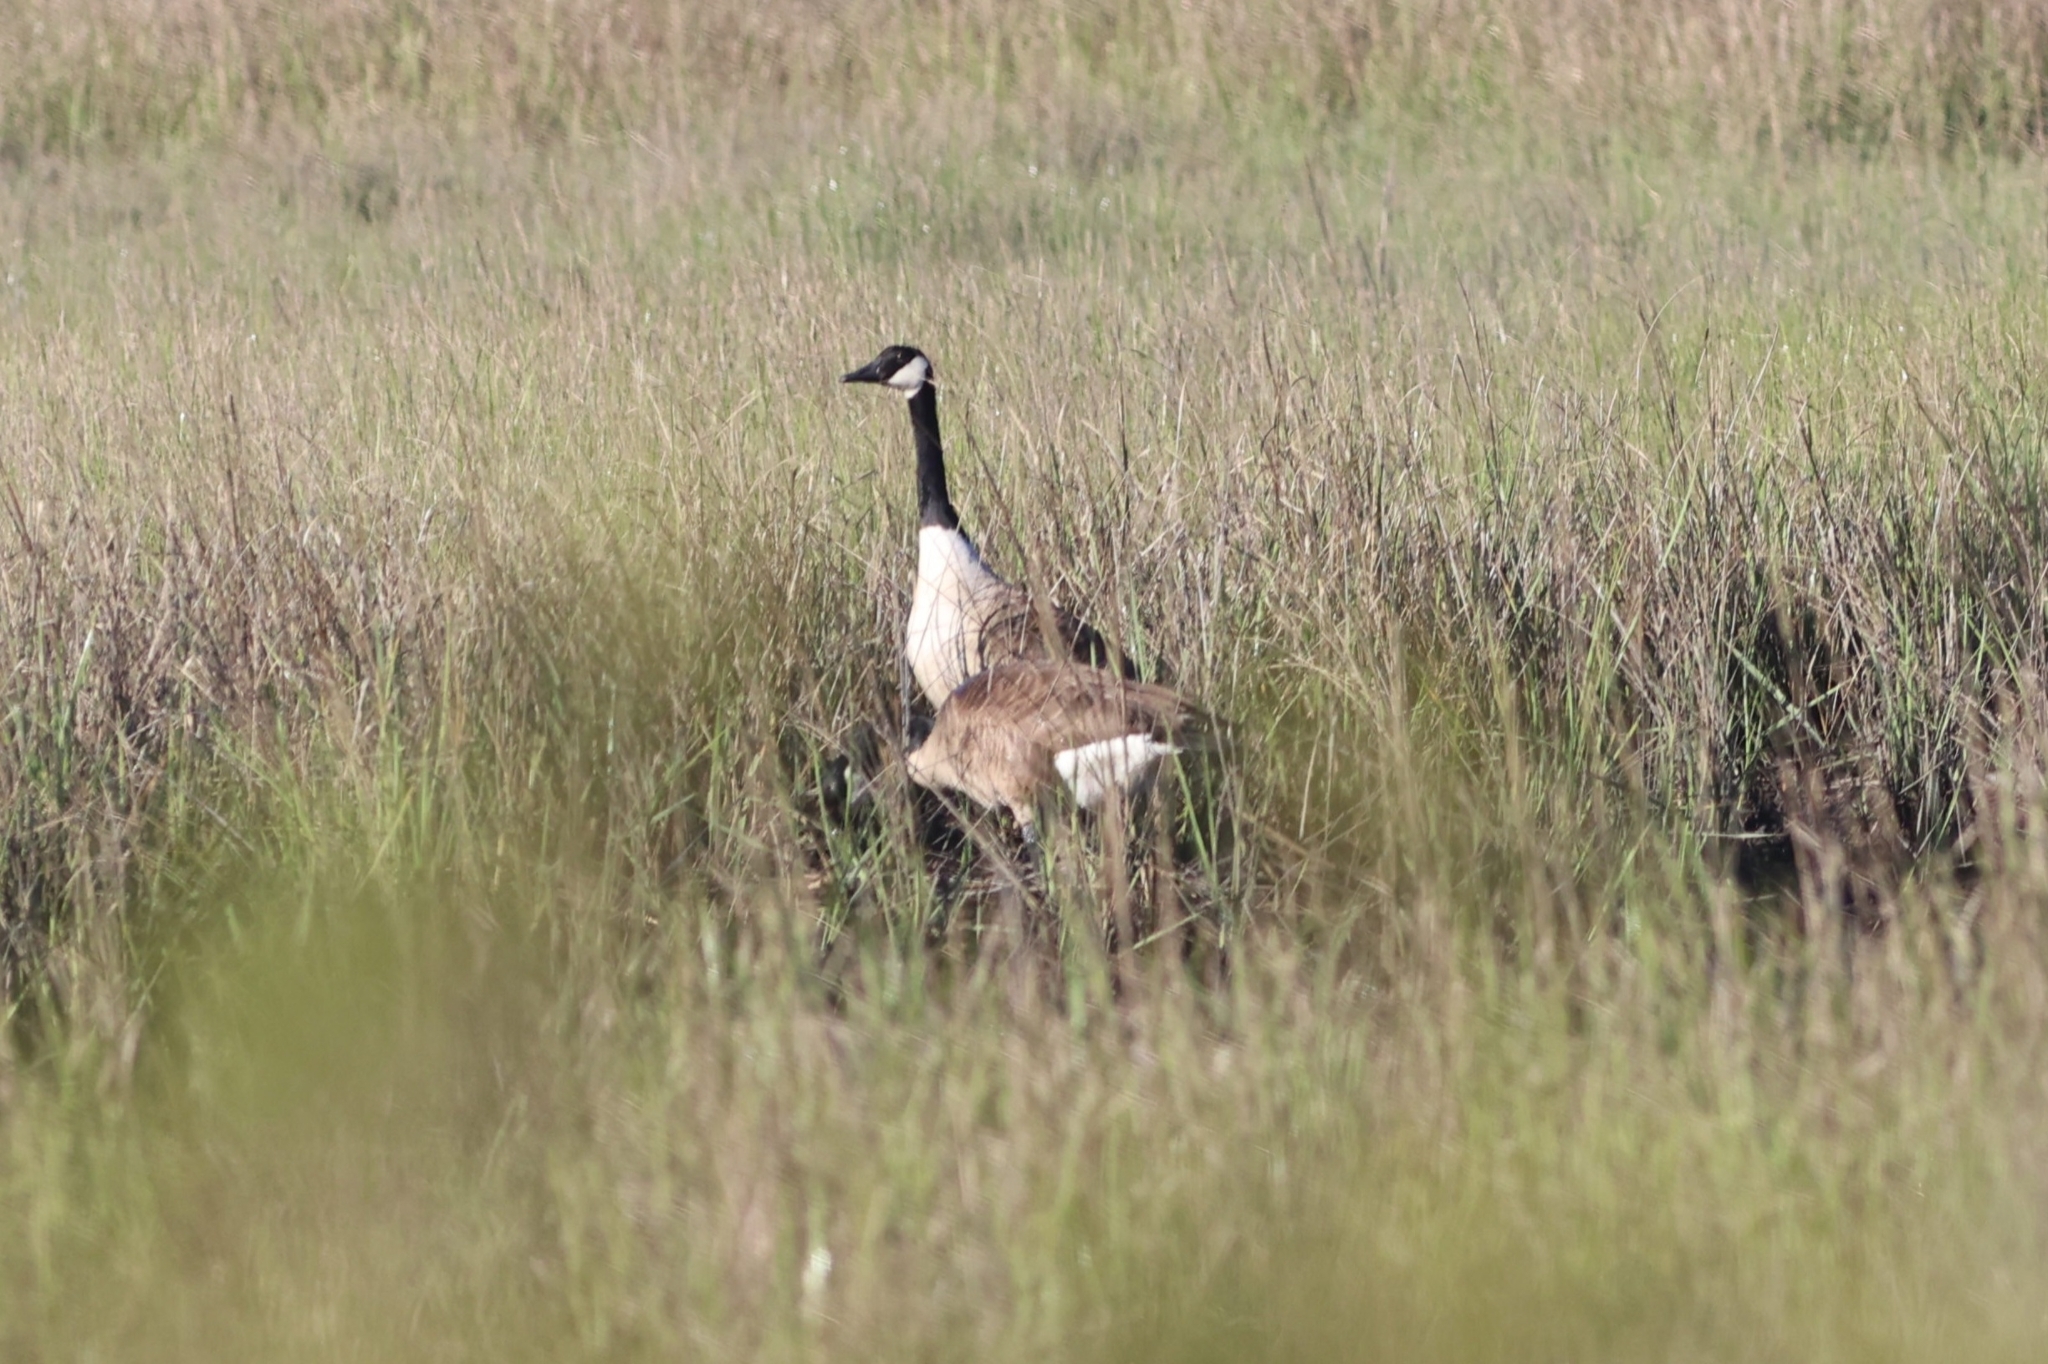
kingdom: Animalia
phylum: Chordata
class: Aves
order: Anseriformes
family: Anatidae
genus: Branta
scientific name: Branta canadensis
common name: Canada goose
